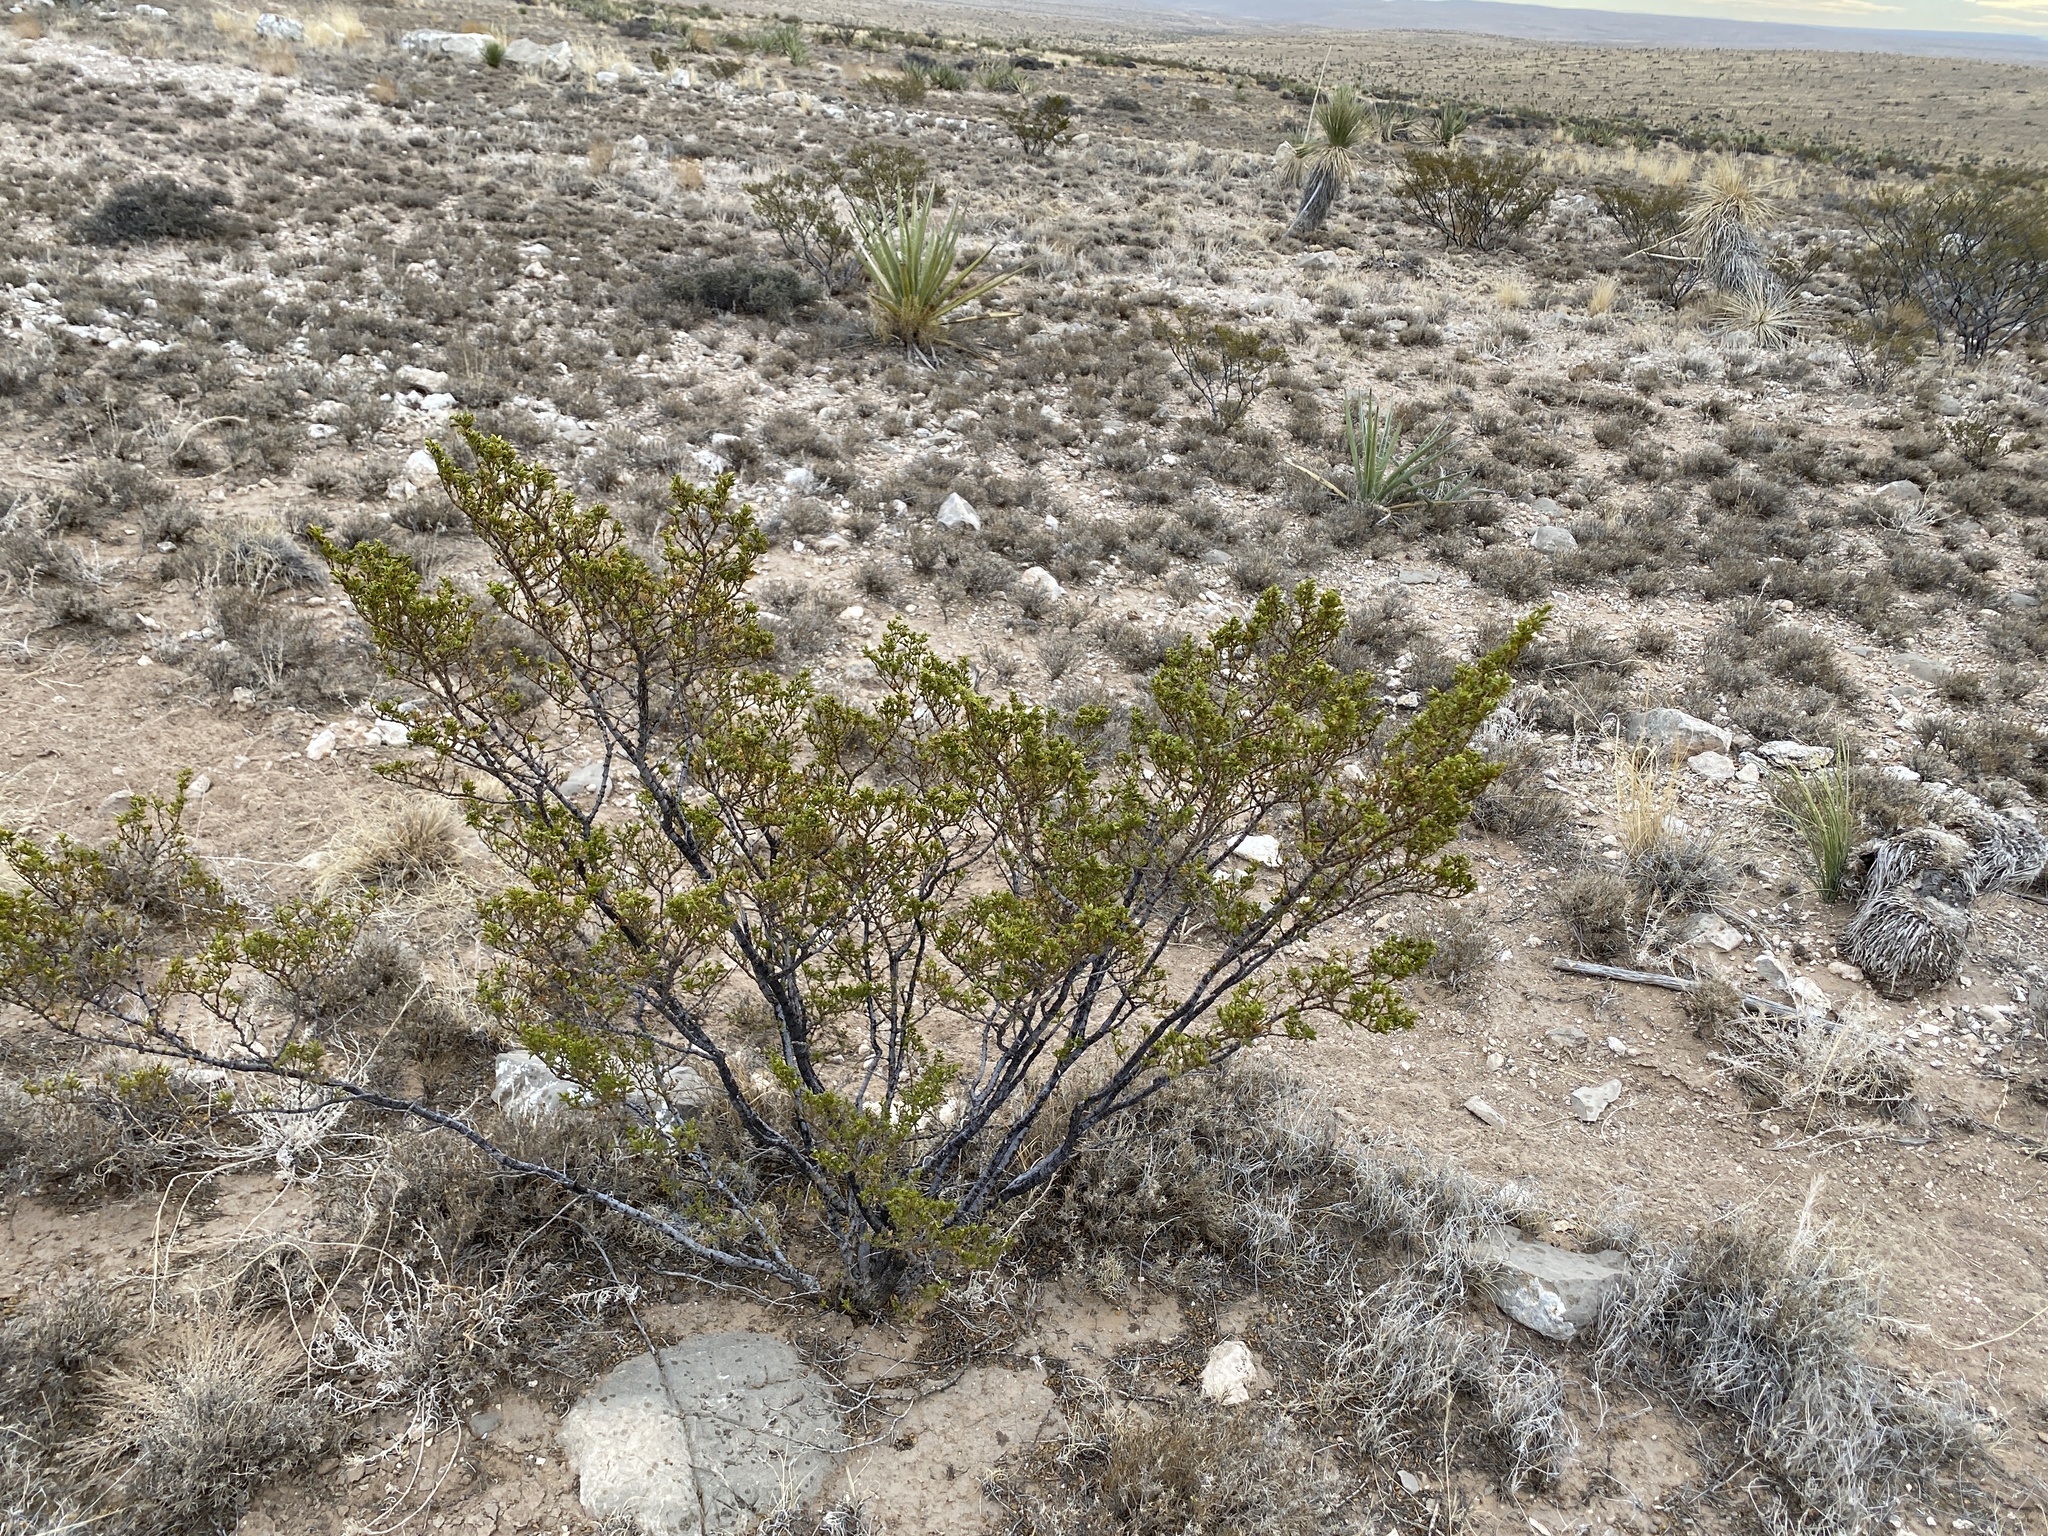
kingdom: Plantae
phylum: Tracheophyta
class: Magnoliopsida
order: Zygophyllales
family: Zygophyllaceae
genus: Larrea
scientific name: Larrea tridentata
